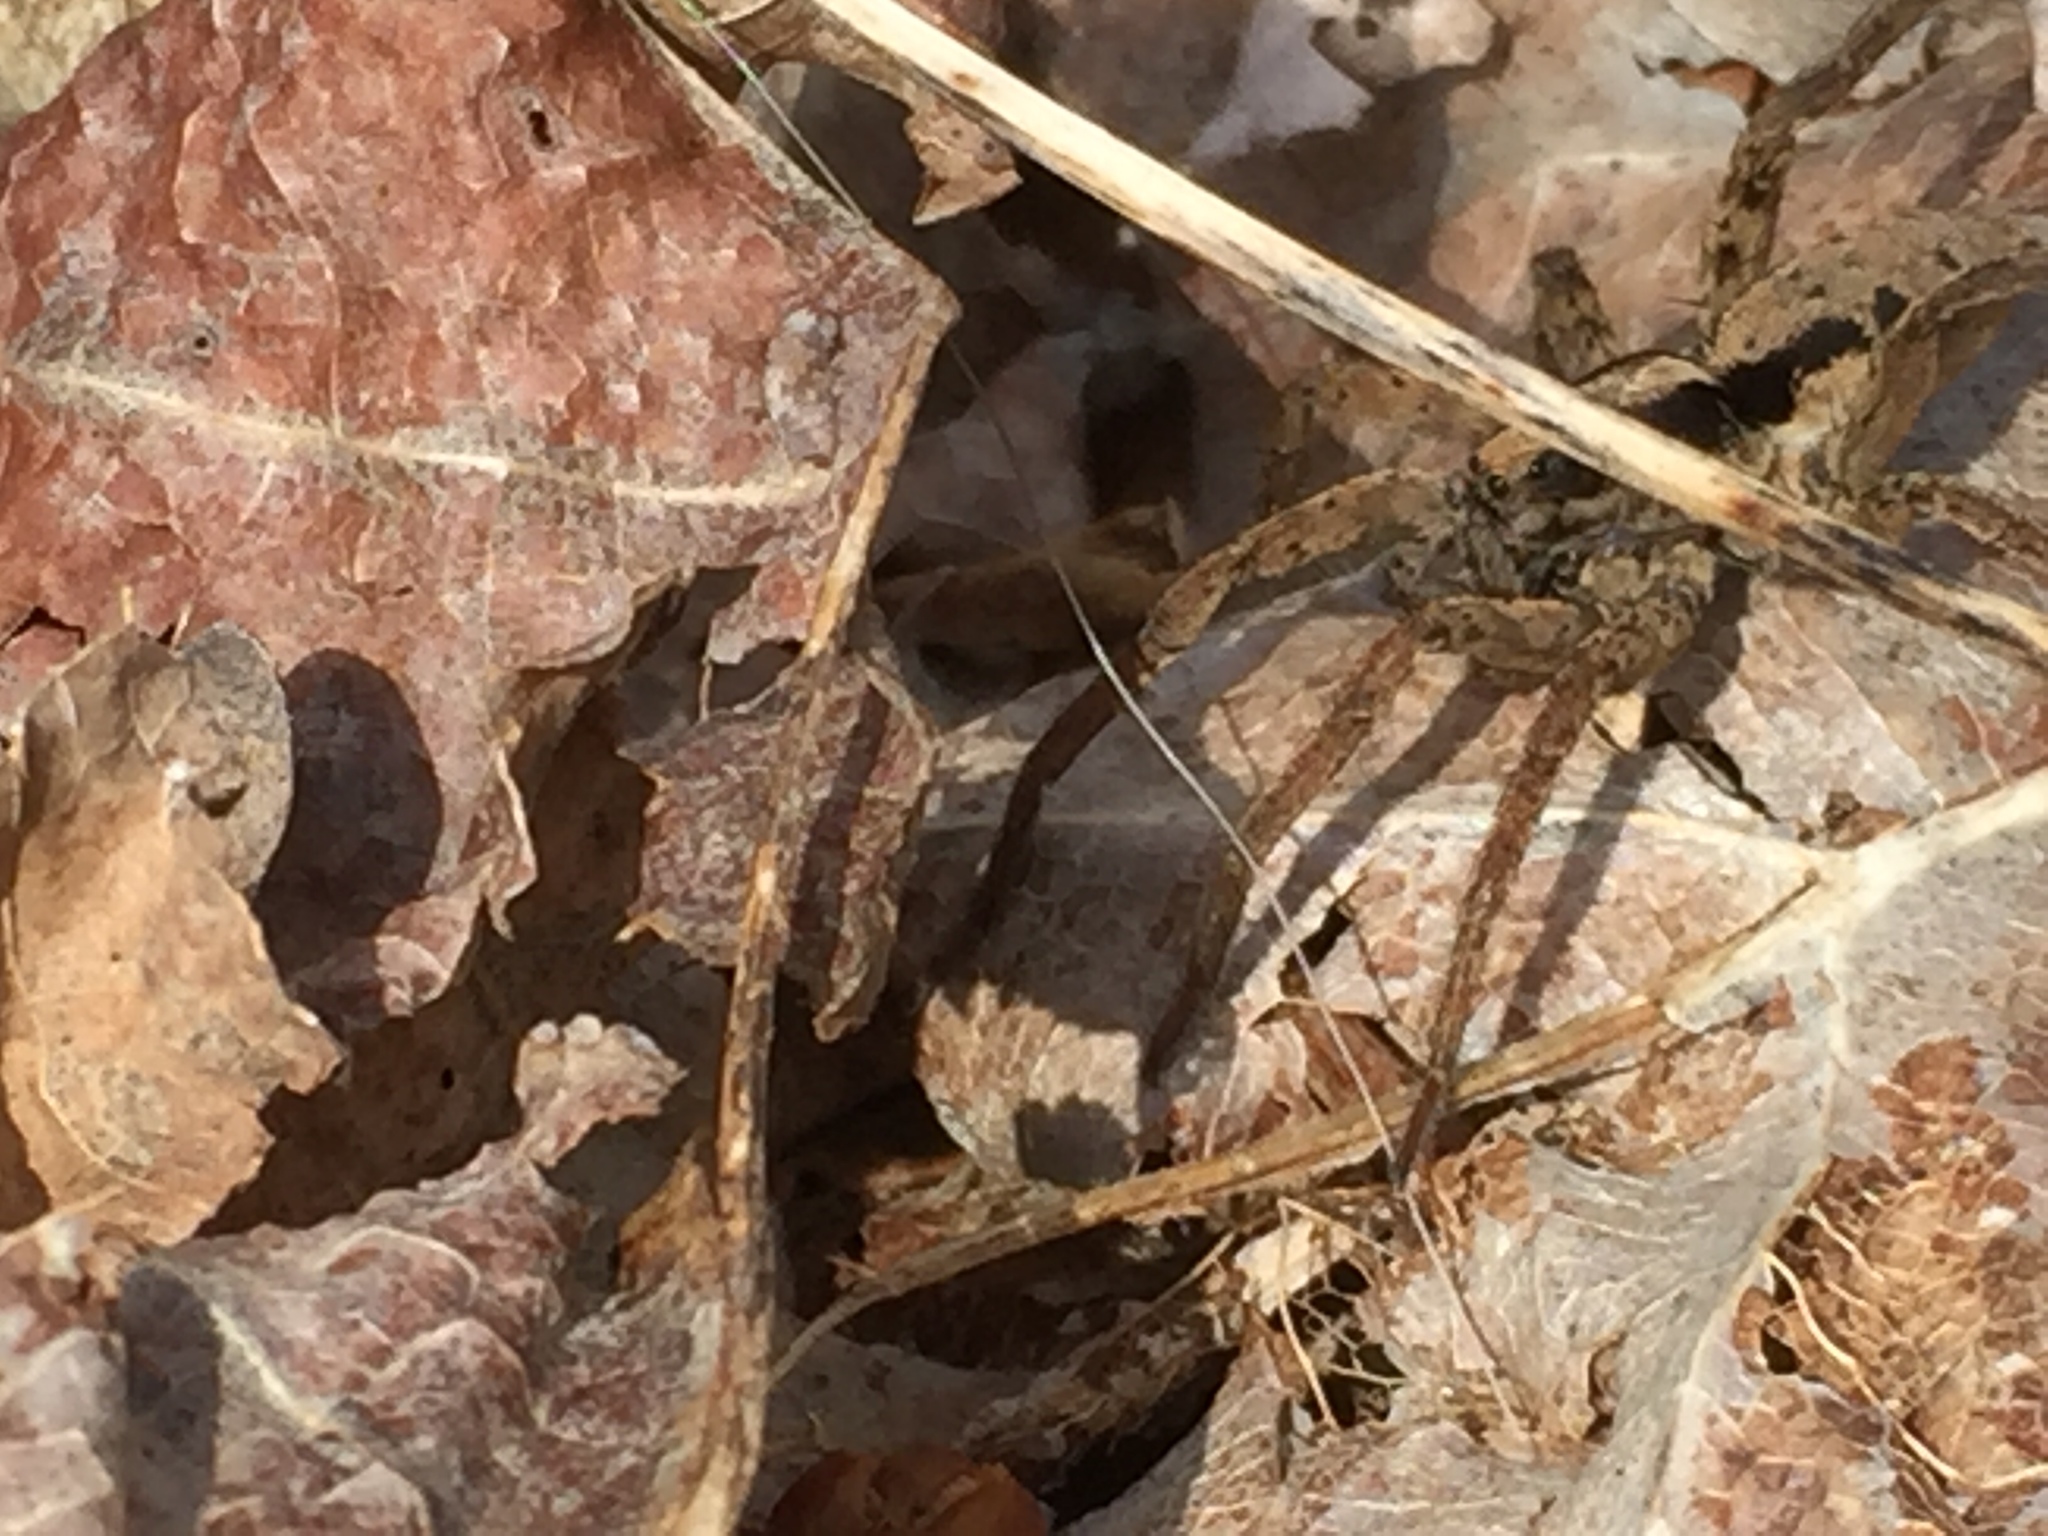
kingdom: Animalia
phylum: Arthropoda
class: Arachnida
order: Araneae
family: Lycosidae
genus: Gladicosa
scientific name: Gladicosa gulosa
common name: Drumming sword wolf spider
